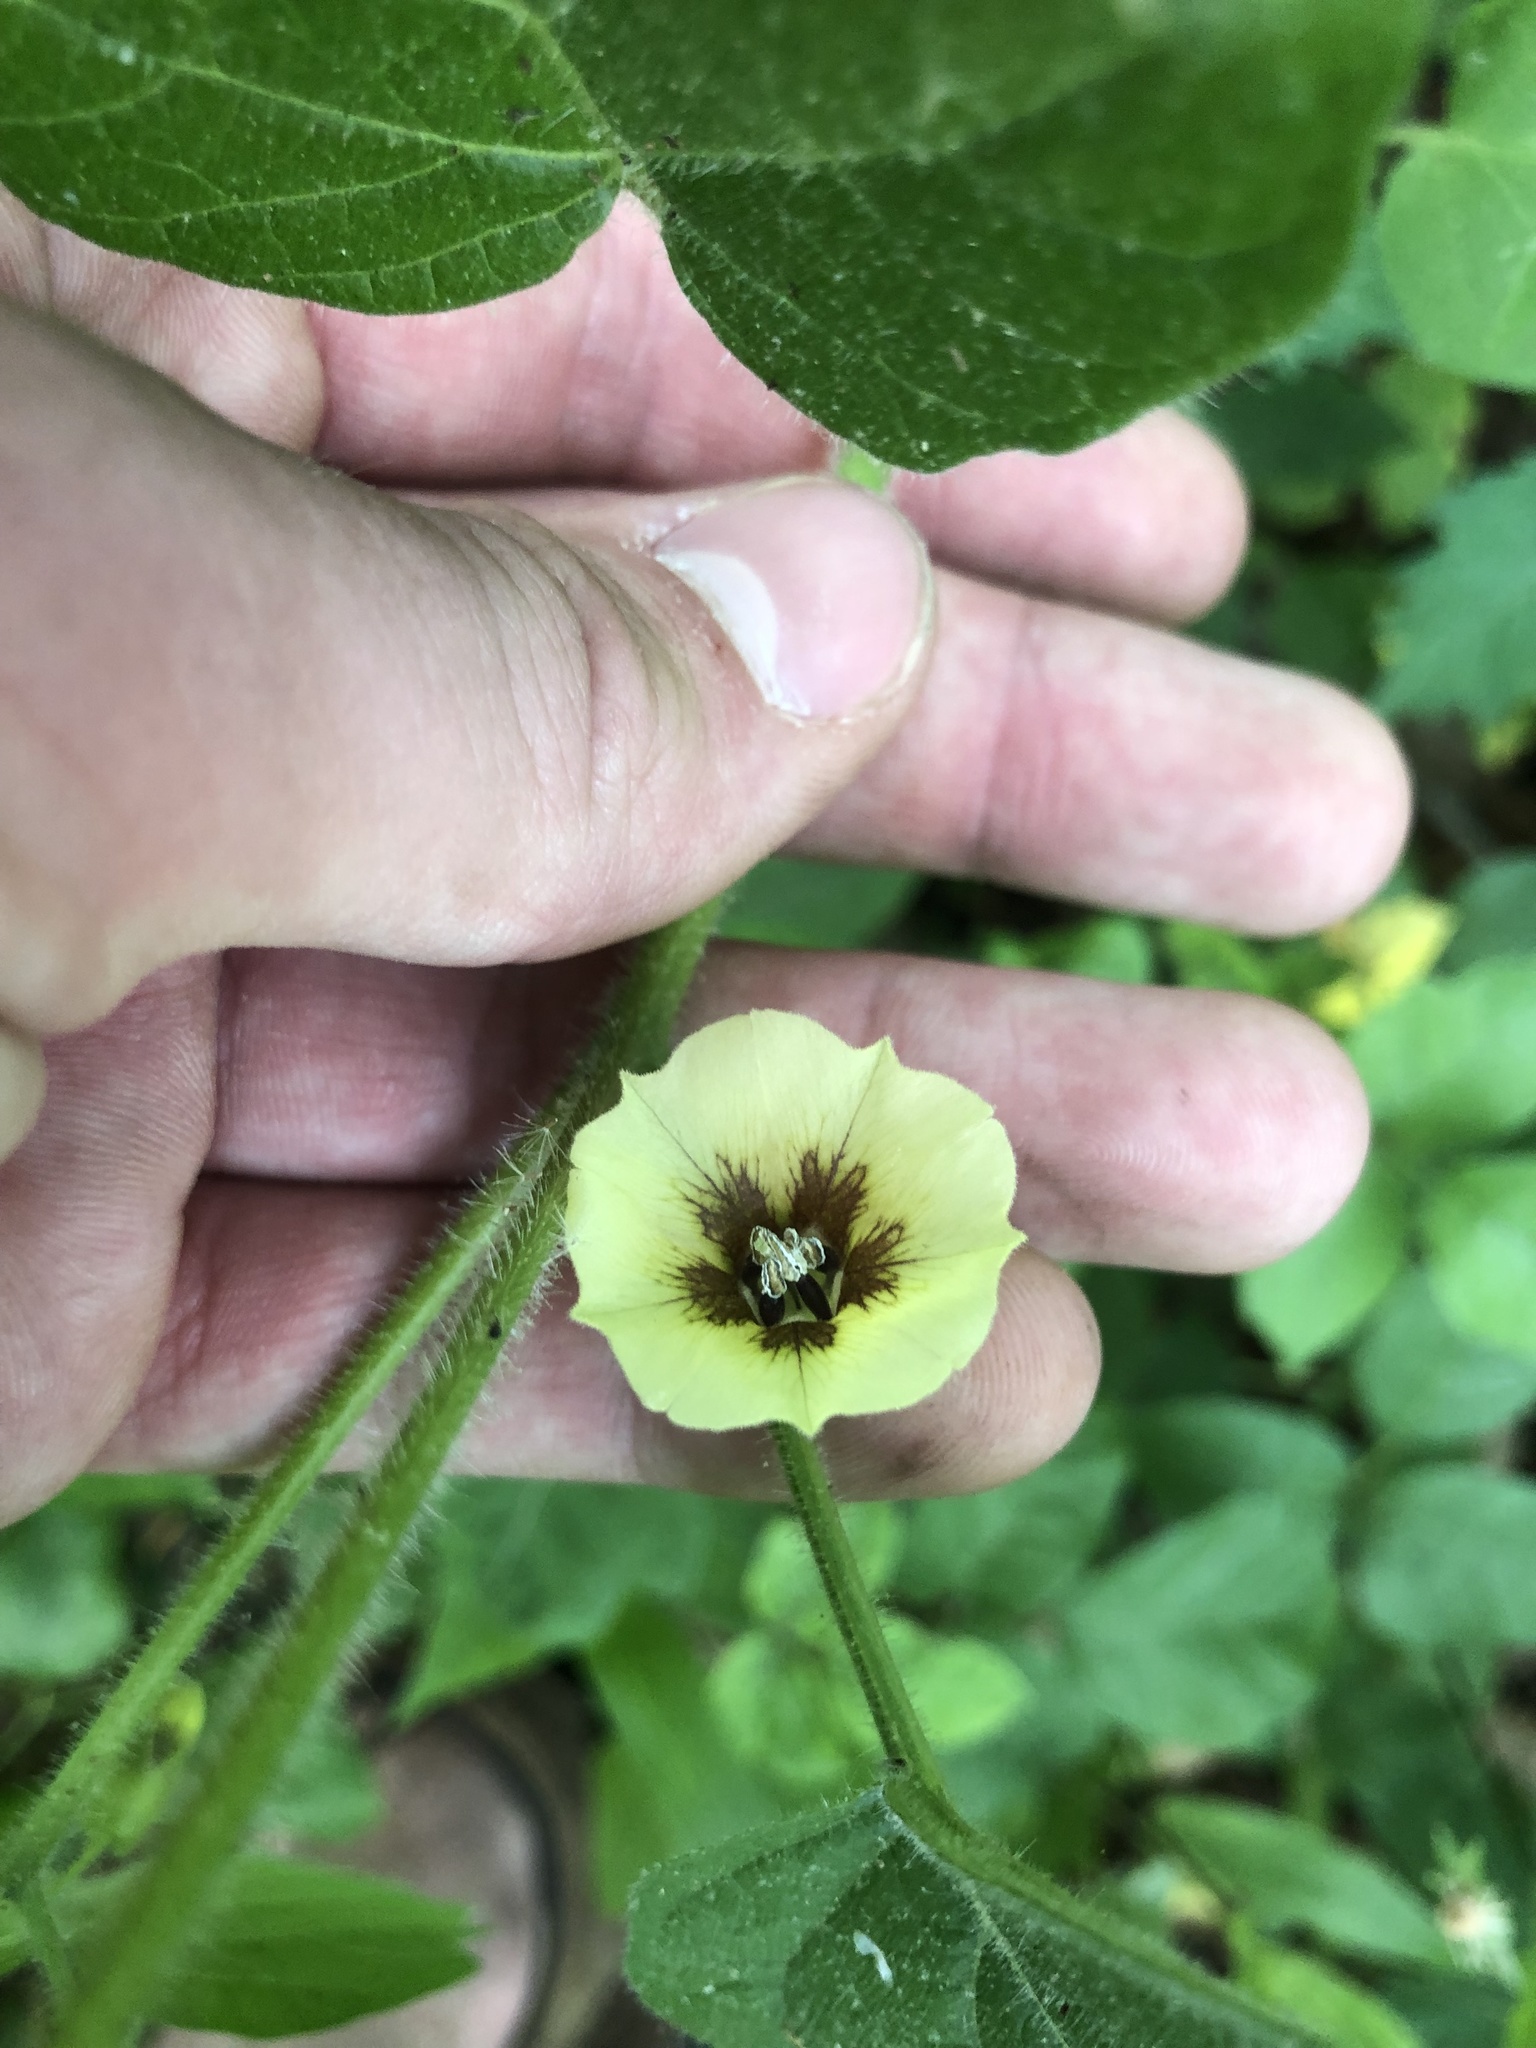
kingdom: Plantae
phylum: Tracheophyta
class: Magnoliopsida
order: Solanales
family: Solanaceae
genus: Physalis
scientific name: Physalis heterophylla
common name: Clammy ground-cherry
